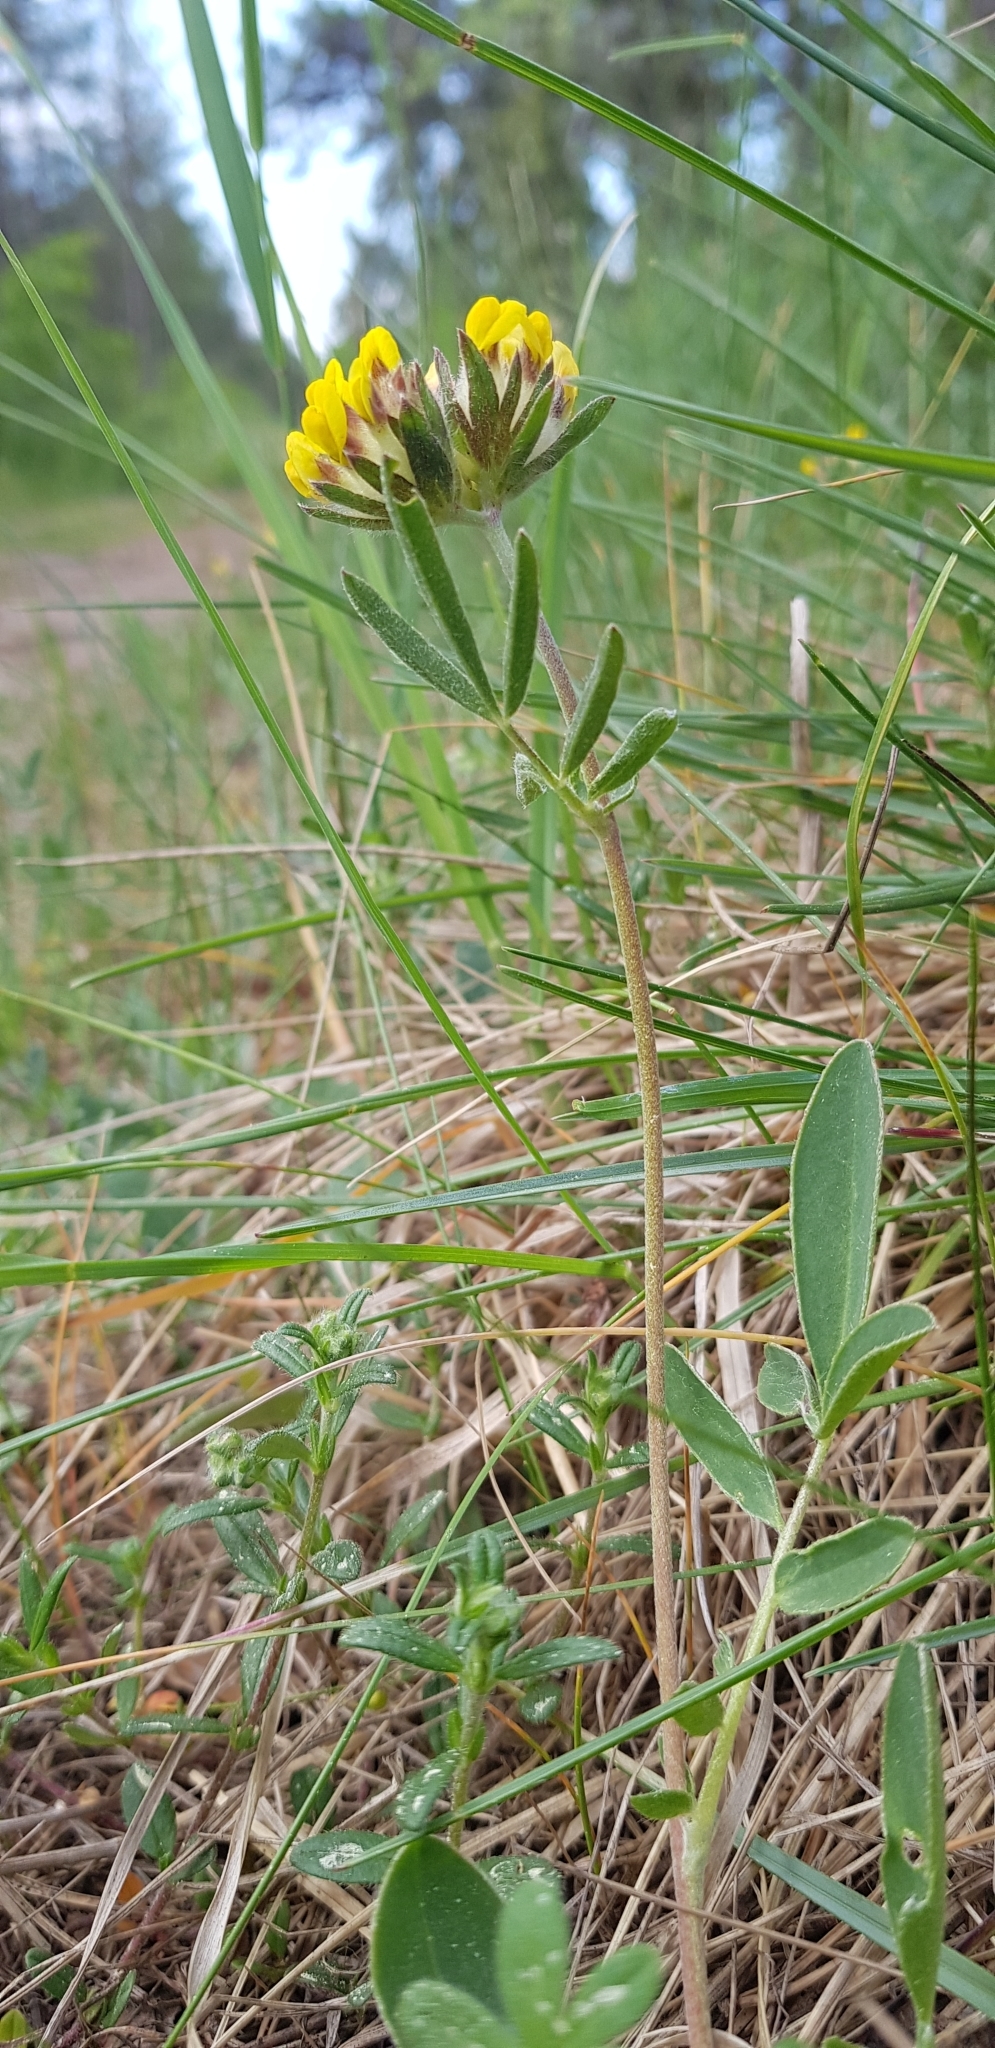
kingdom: Plantae
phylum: Tracheophyta
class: Magnoliopsida
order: Fabales
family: Fabaceae
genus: Anthyllis
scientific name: Anthyllis vulneraria
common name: Kidney vetch
